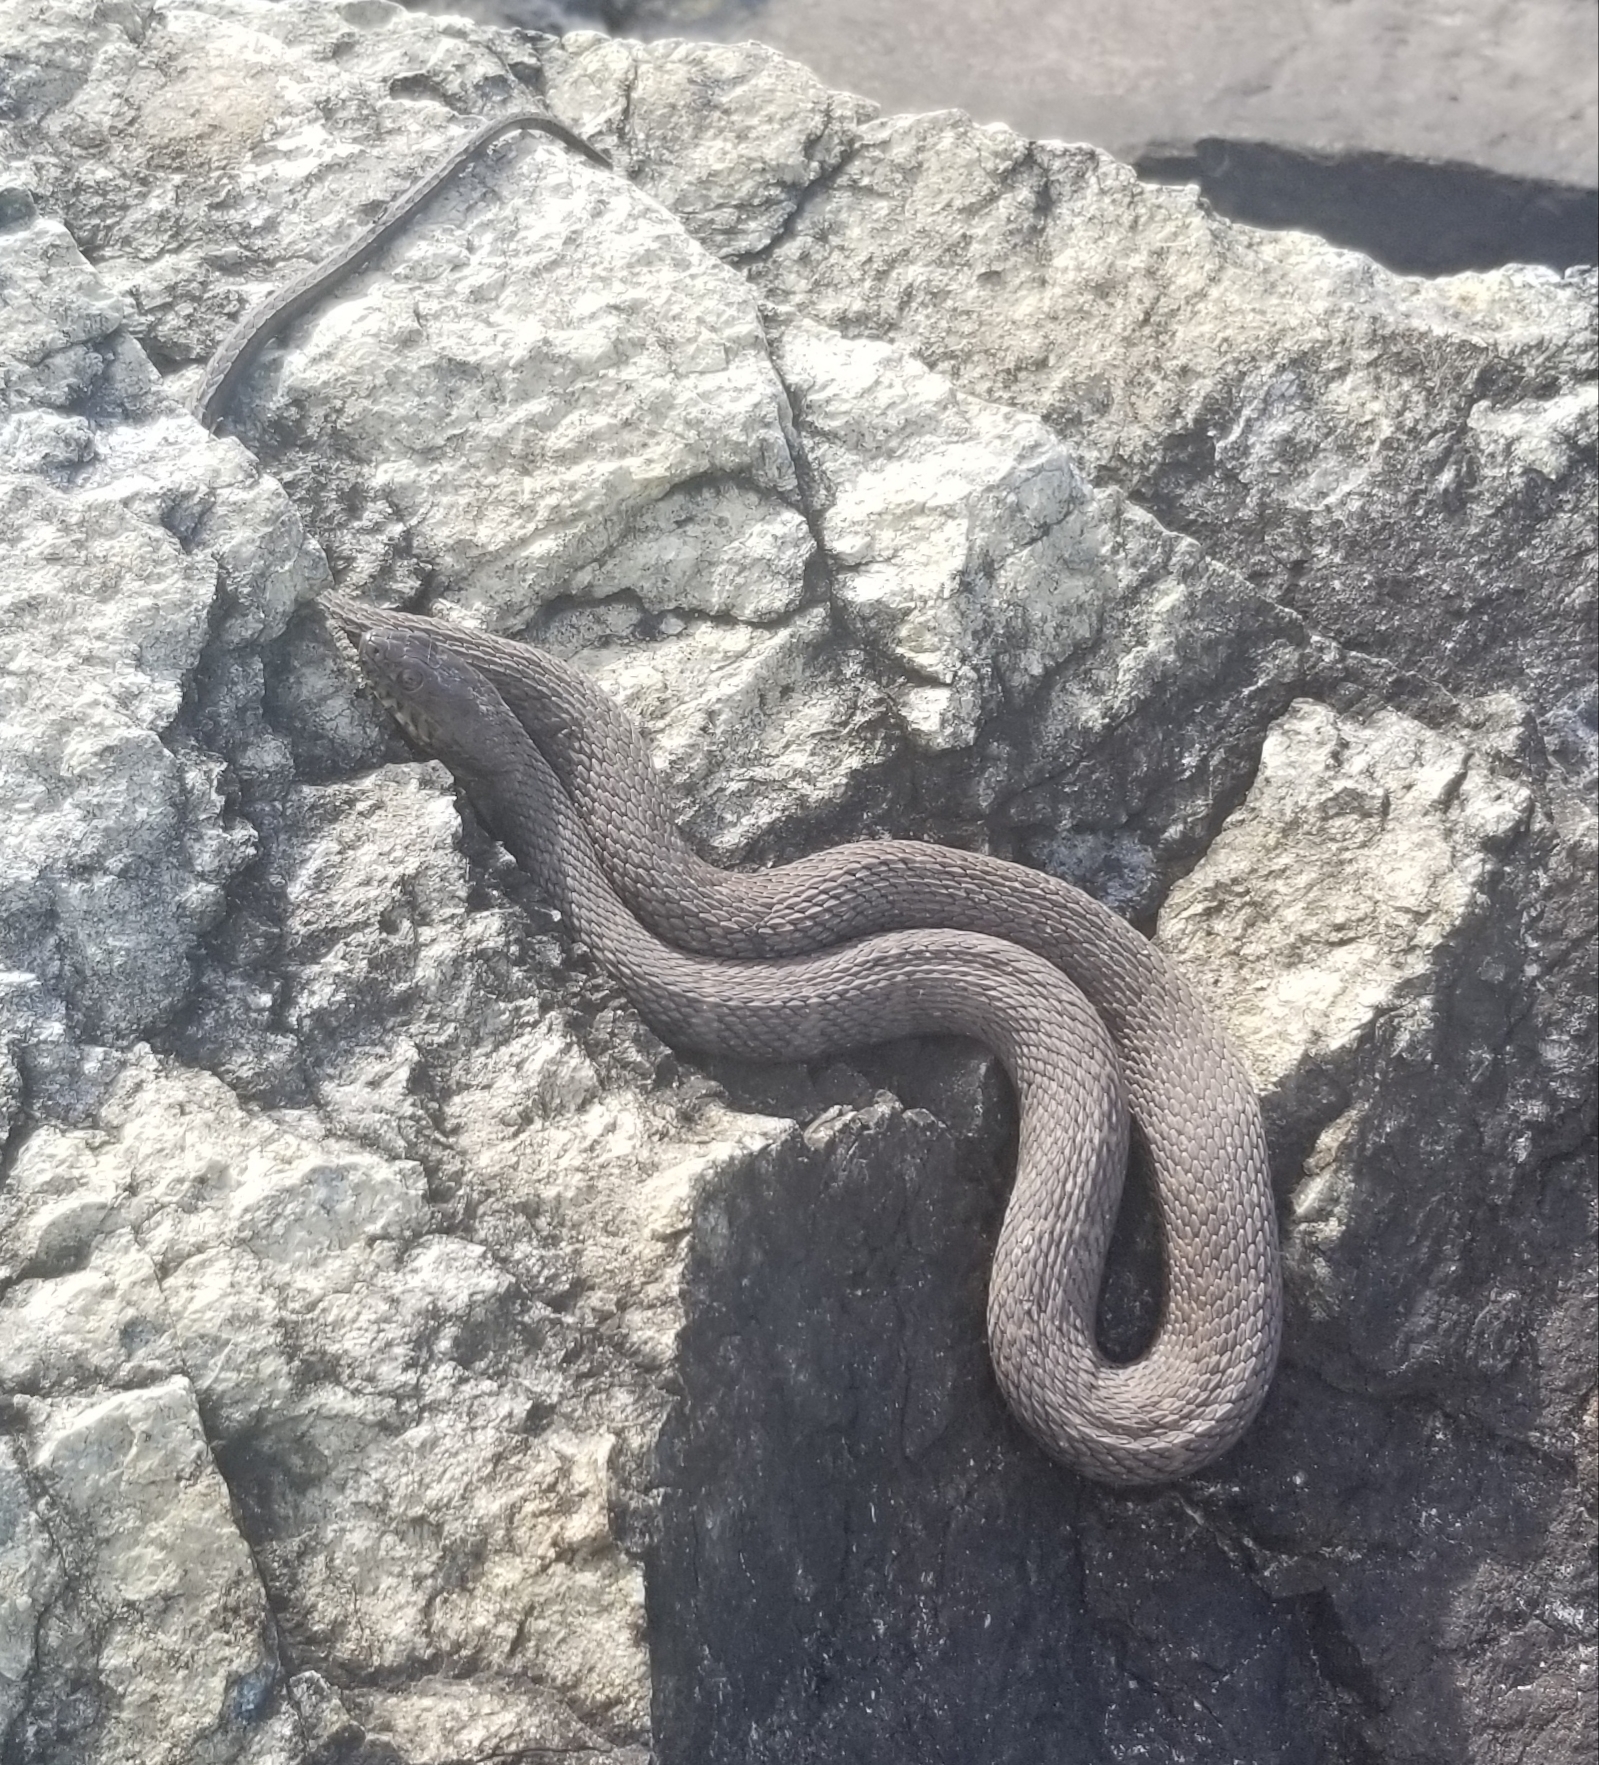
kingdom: Animalia
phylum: Chordata
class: Squamata
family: Colubridae
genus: Nerodia
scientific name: Nerodia sipedon
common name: Northern water snake
